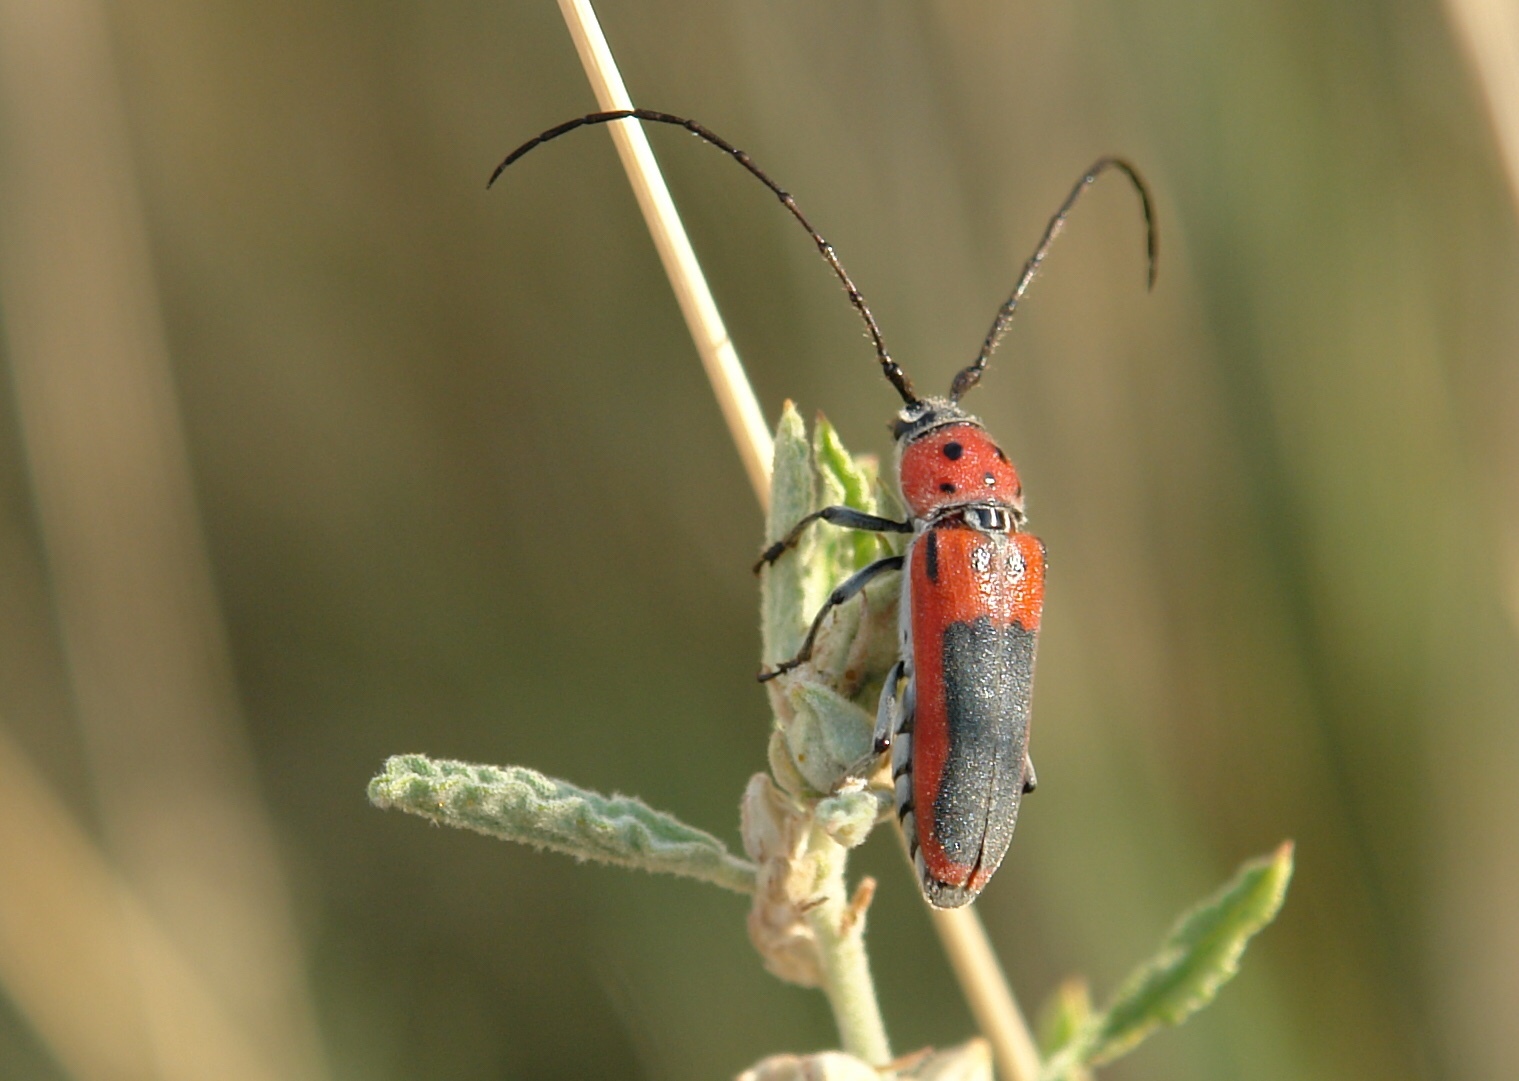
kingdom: Animalia
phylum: Arthropoda
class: Insecta
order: Coleoptera
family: Cerambycidae
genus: Tylosis
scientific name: Tylosis maculatus
